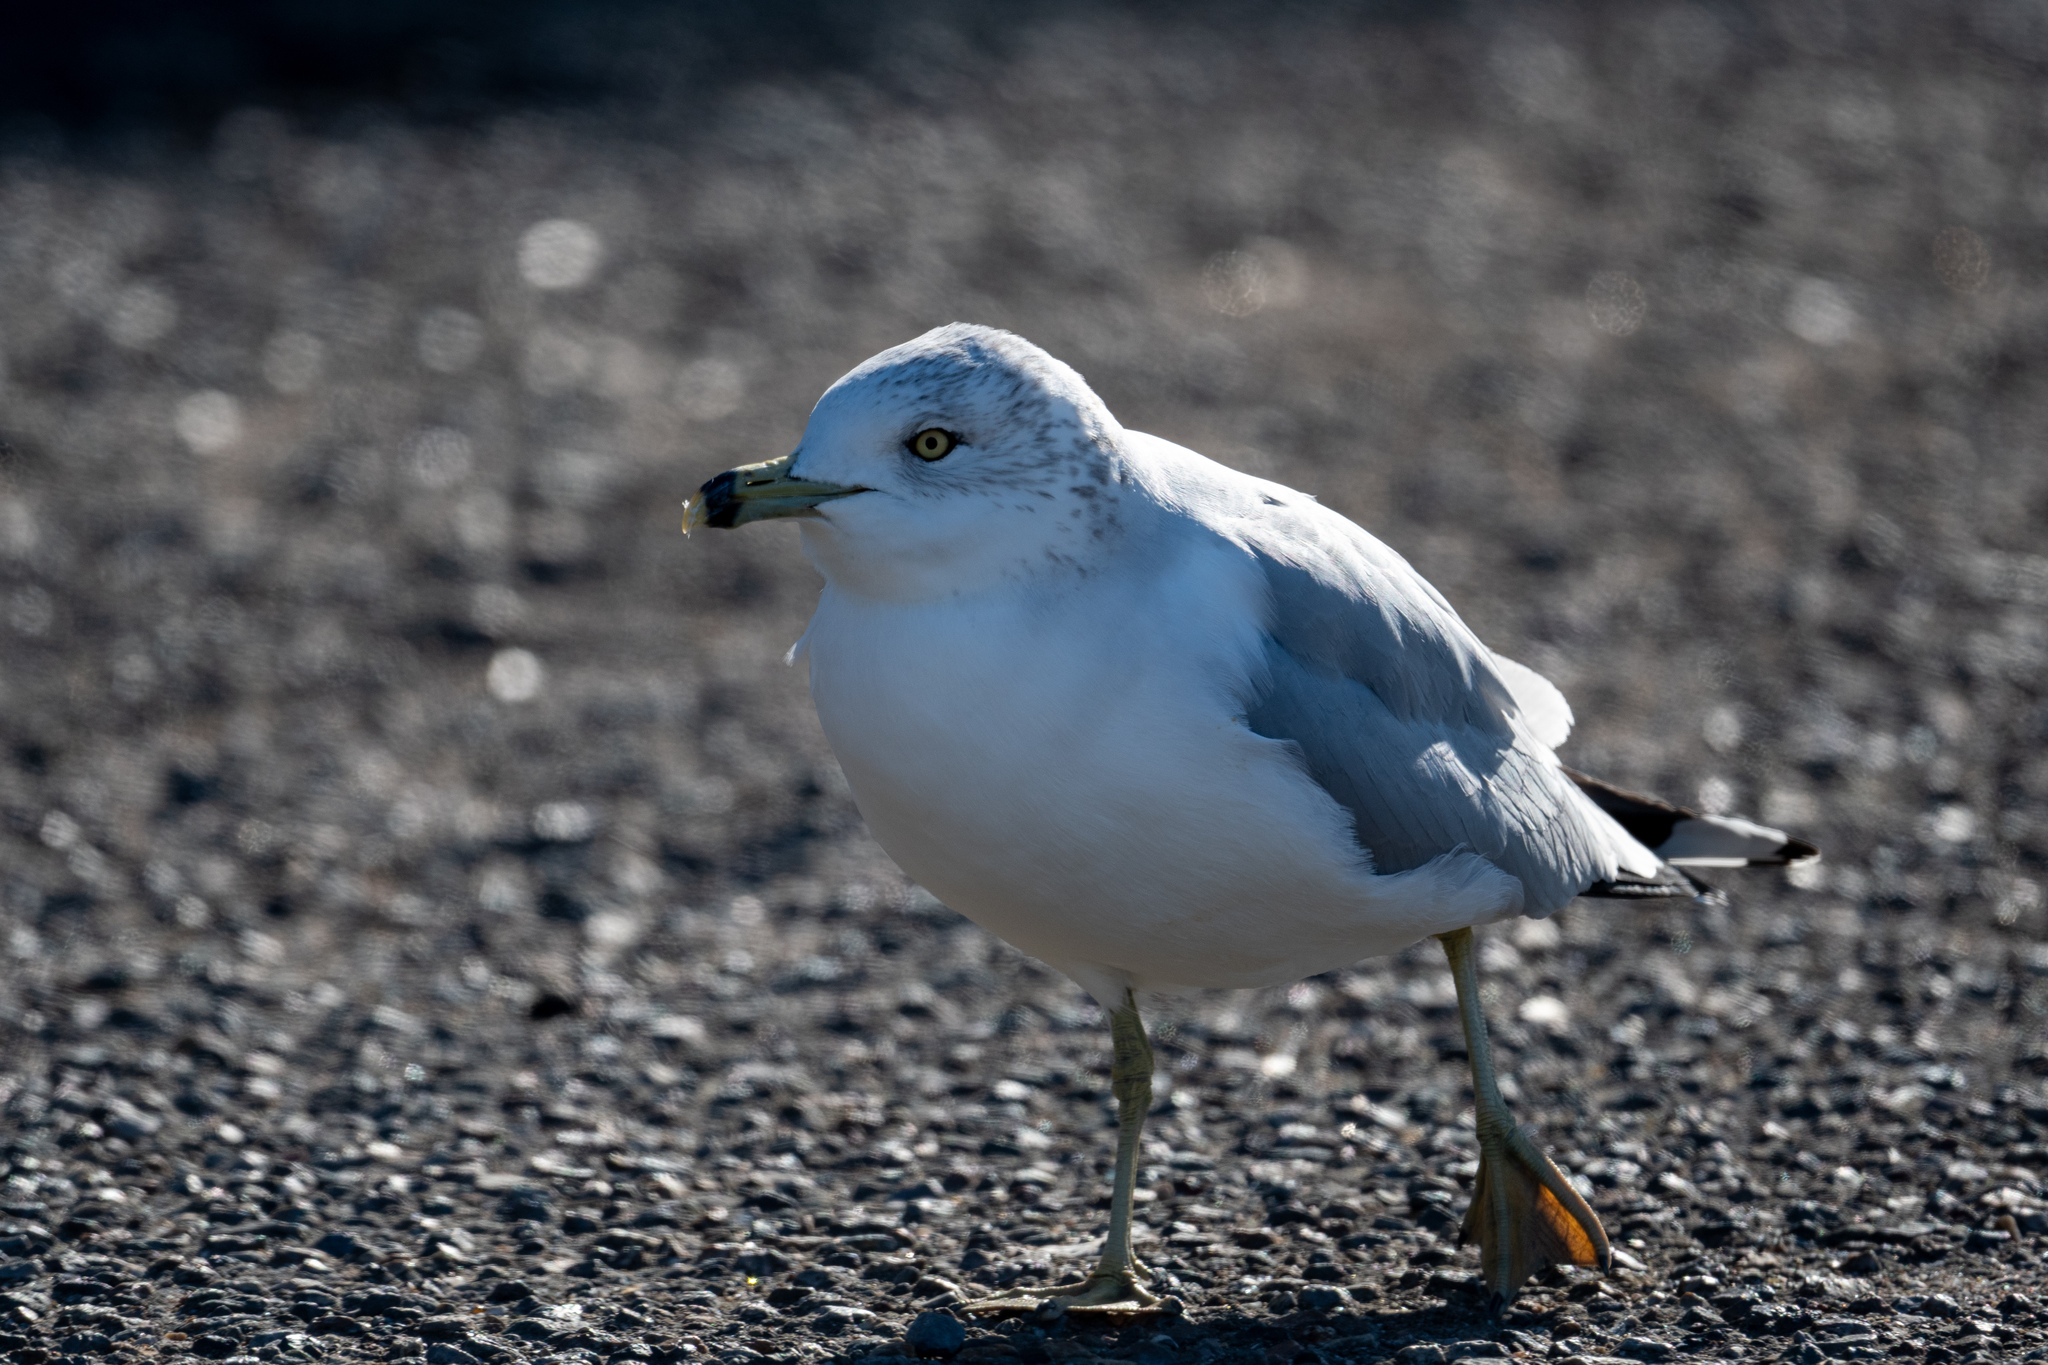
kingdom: Animalia
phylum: Chordata
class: Aves
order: Charadriiformes
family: Laridae
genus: Larus
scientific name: Larus delawarensis
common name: Ring-billed gull
